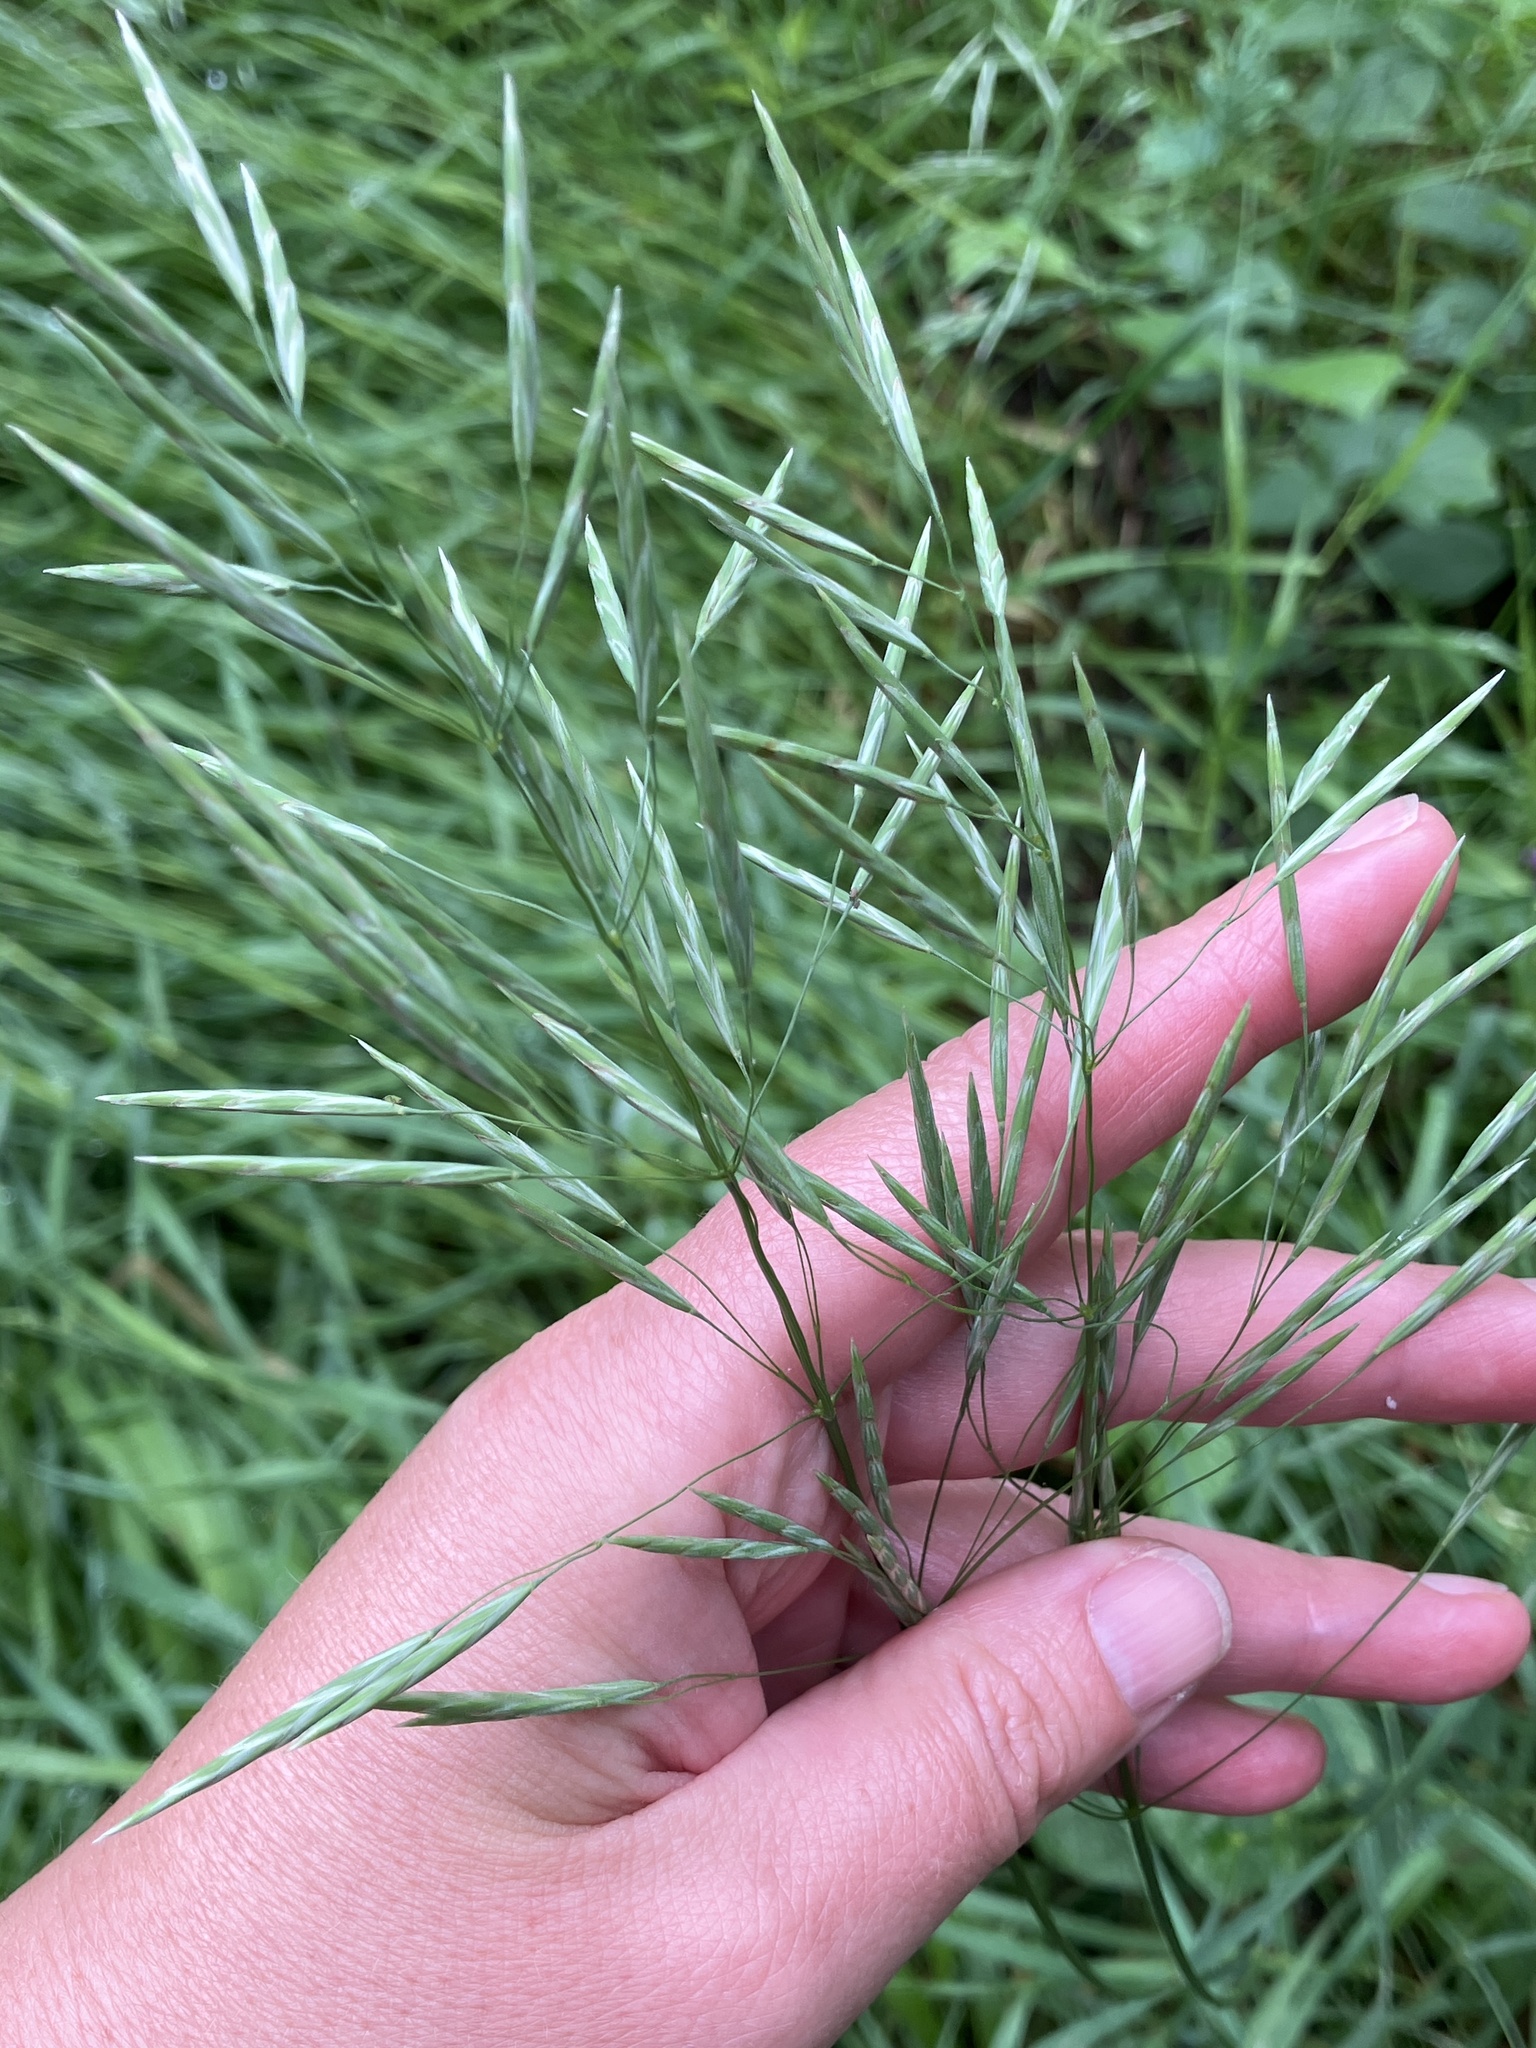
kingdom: Plantae
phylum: Tracheophyta
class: Liliopsida
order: Poales
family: Poaceae
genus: Bromus
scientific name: Bromus inermis
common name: Smooth brome
